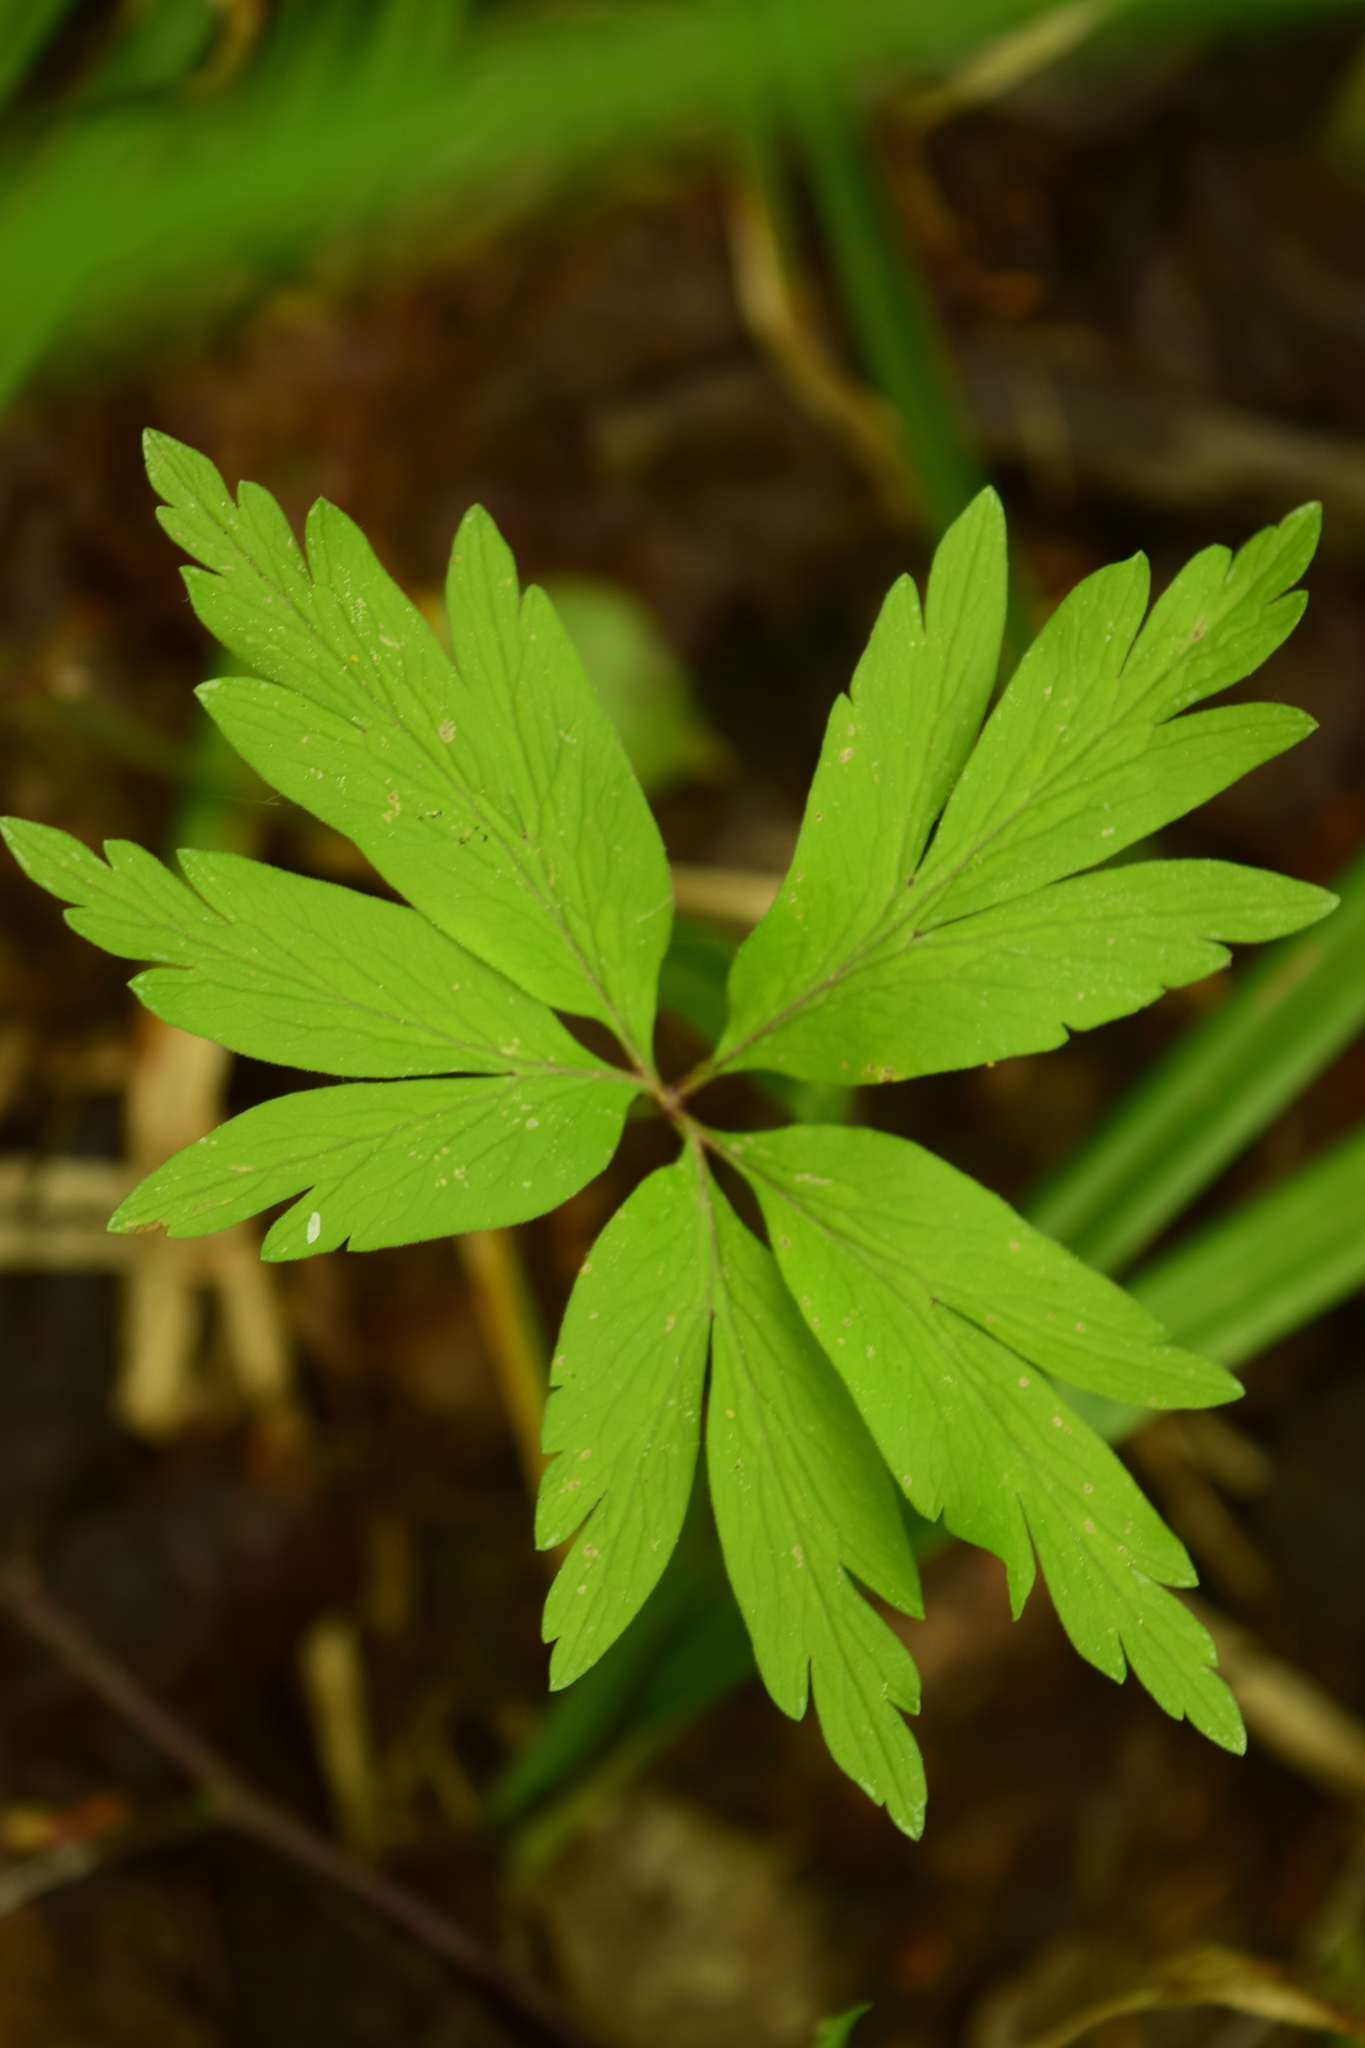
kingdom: Plantae
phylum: Tracheophyta
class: Magnoliopsida
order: Ranunculales
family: Ranunculaceae
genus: Anemone
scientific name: Anemone ranunculoides
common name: Yellow anemone
